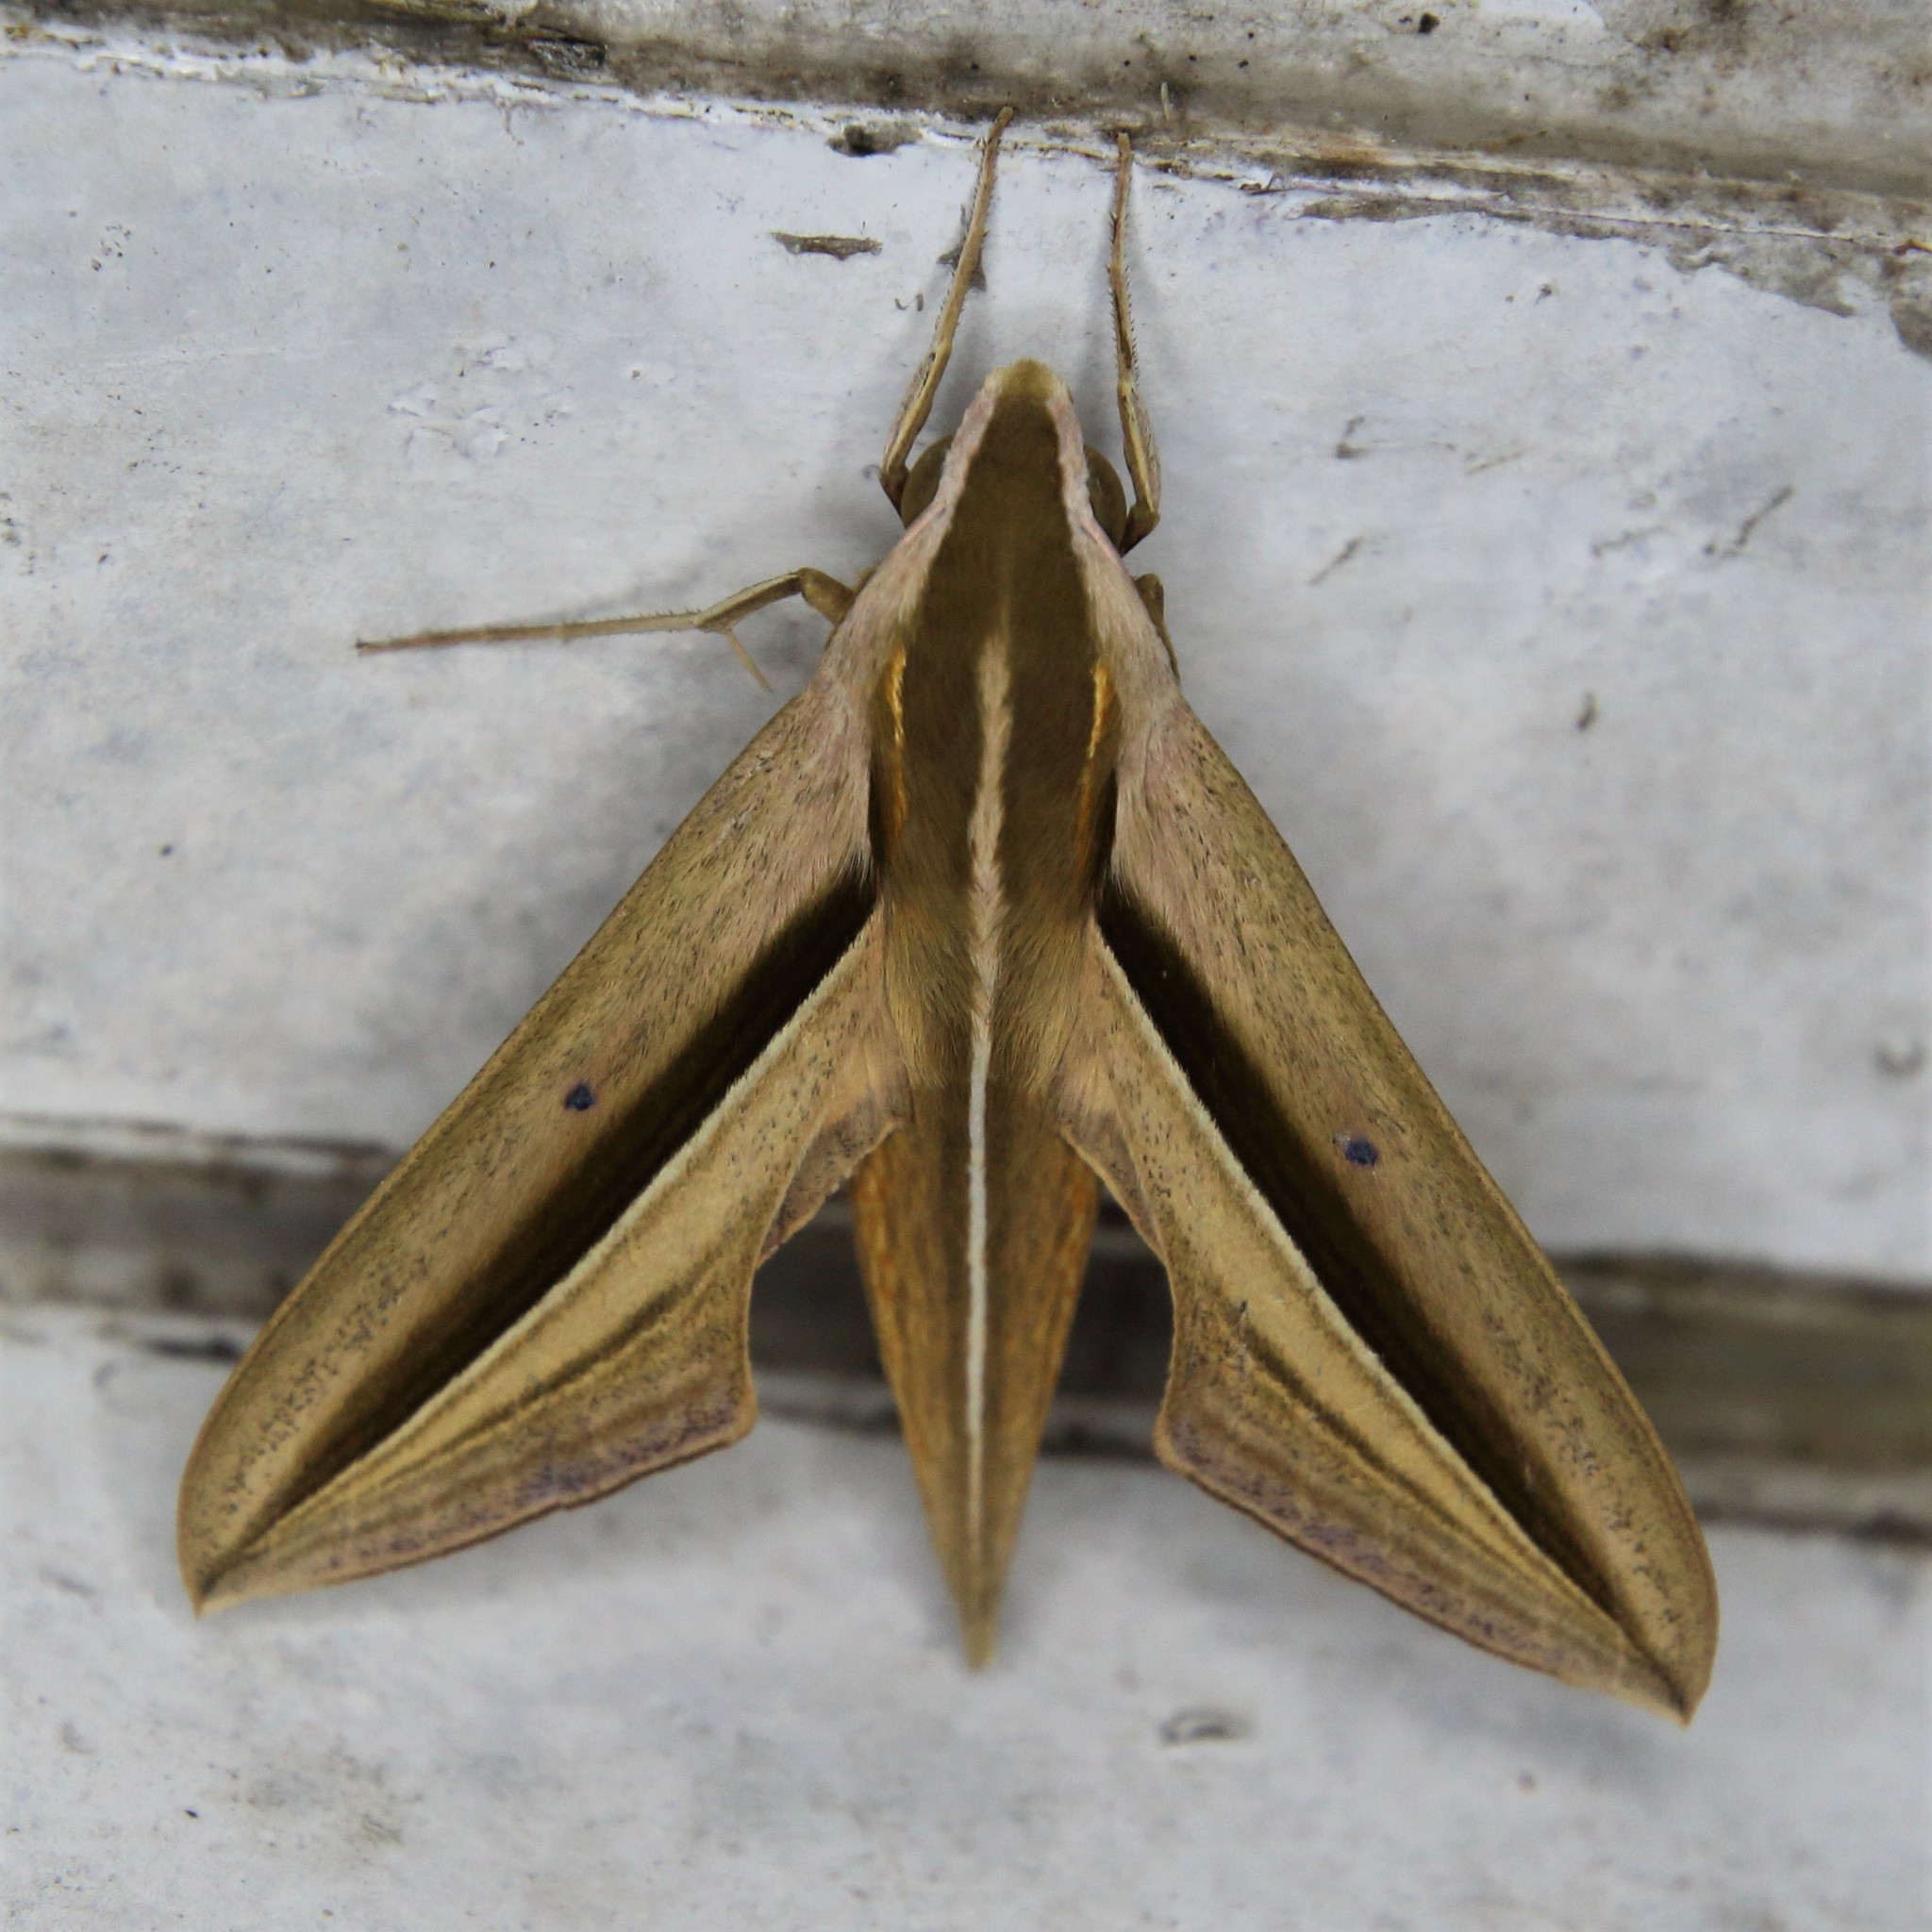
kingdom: Animalia
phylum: Arthropoda
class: Insecta
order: Lepidoptera
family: Sphingidae
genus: Theretra
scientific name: Theretra silhetensis
